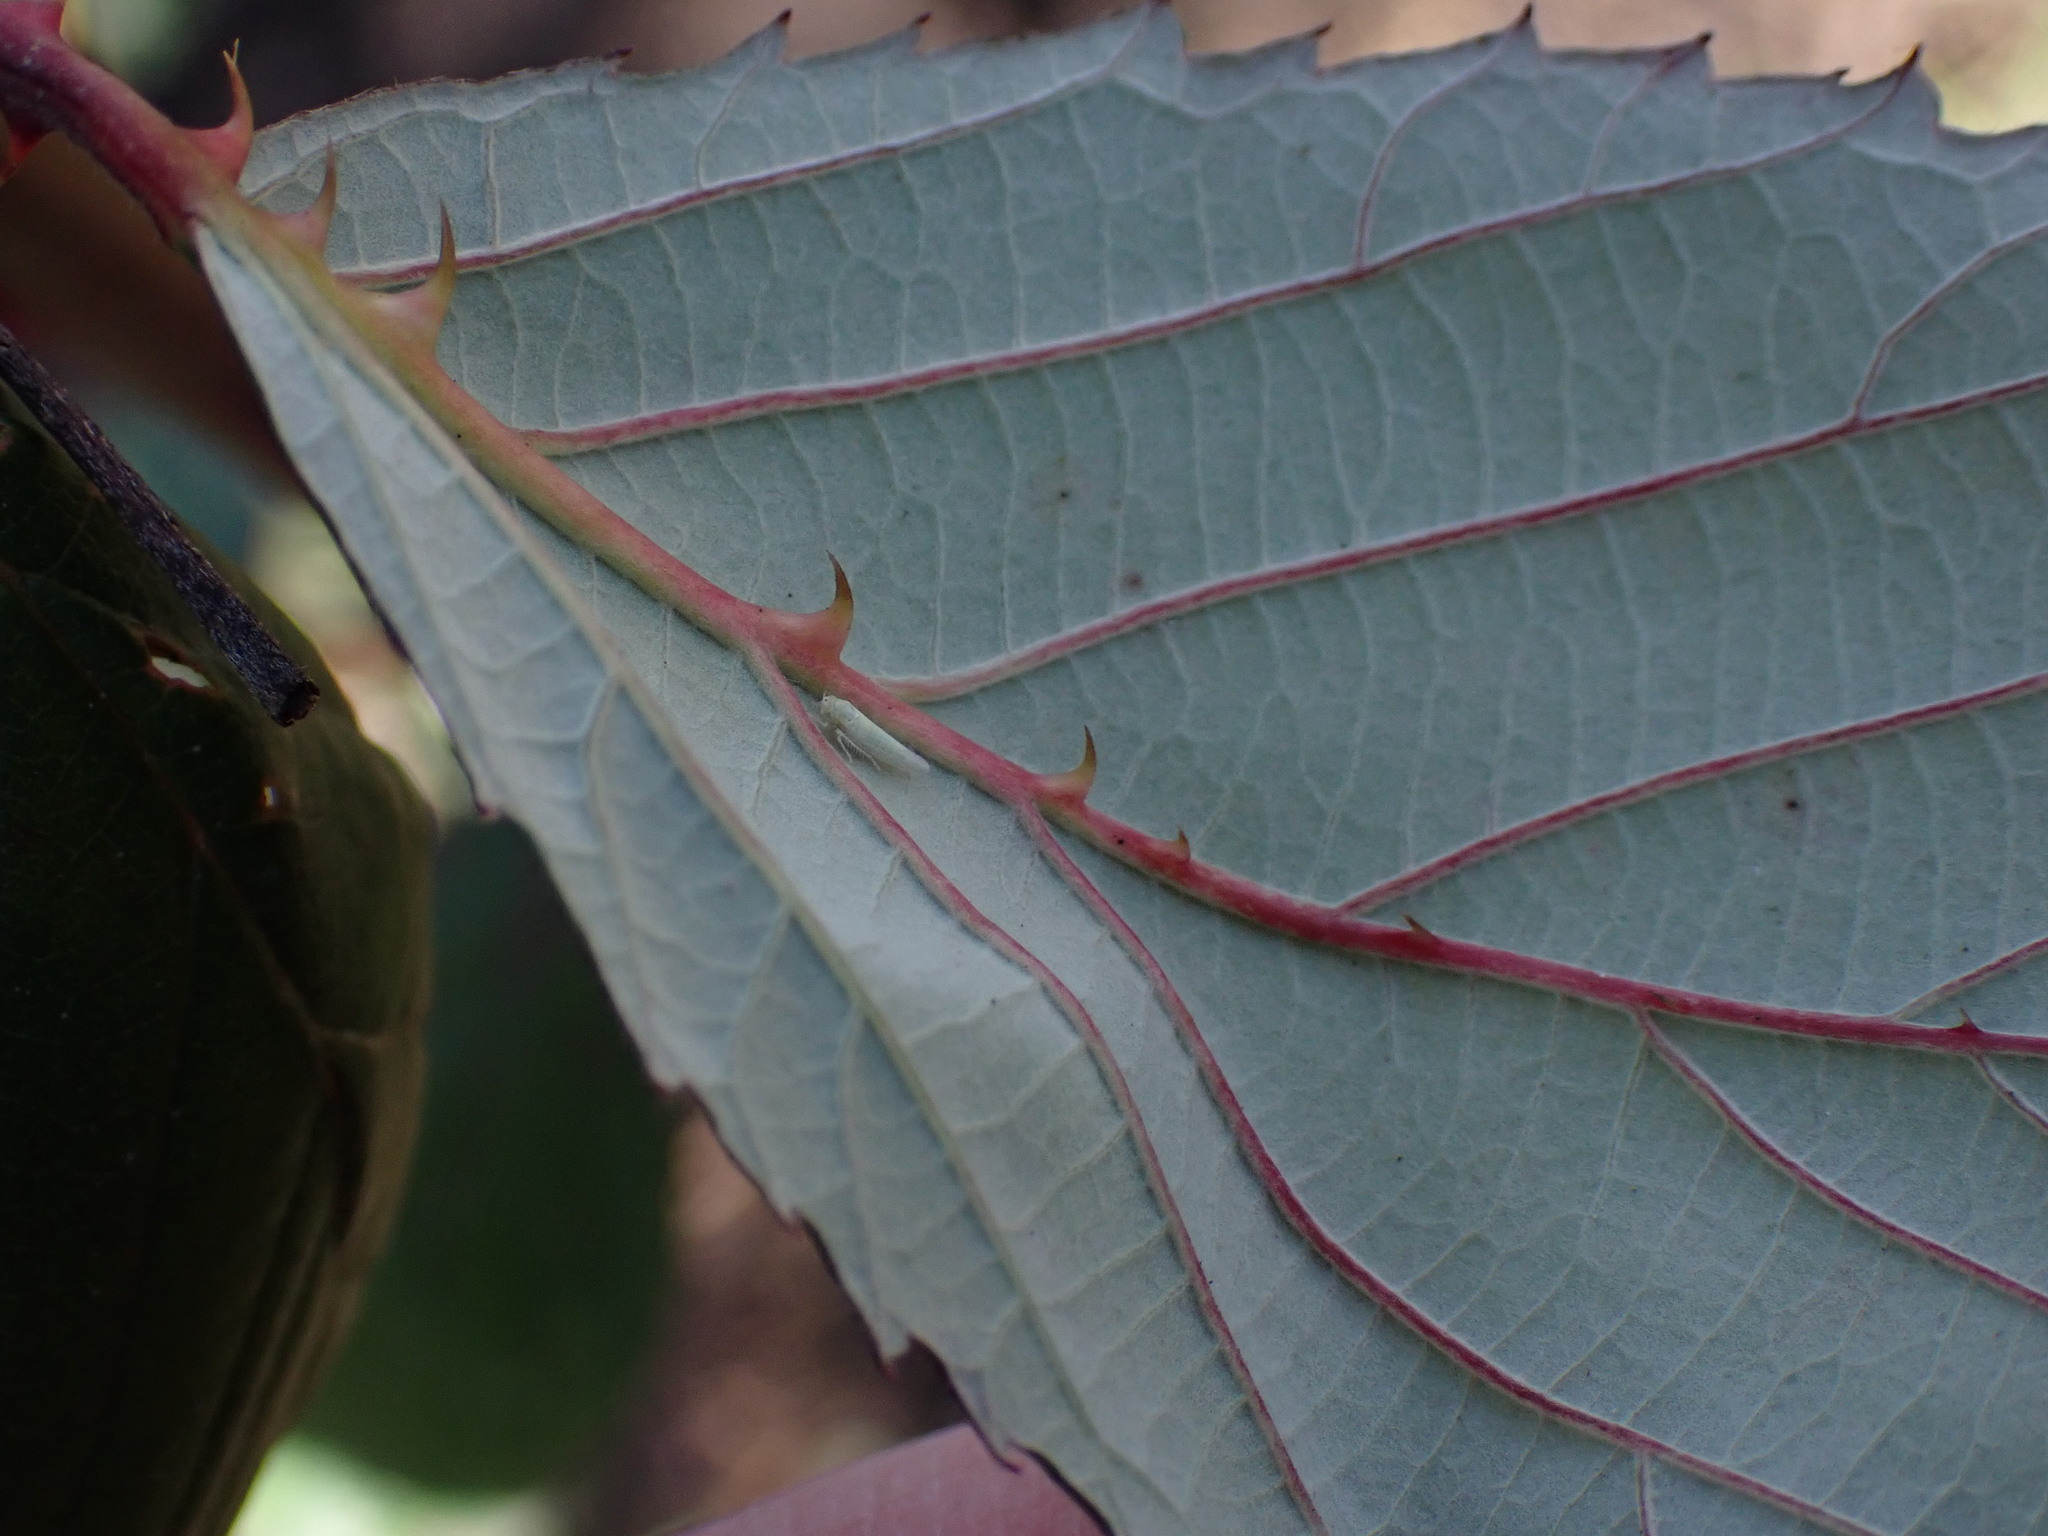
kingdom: Animalia
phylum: Arthropoda
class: Insecta
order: Hemiptera
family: Cicadellidae
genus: Zygina
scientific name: Zygina nivea
